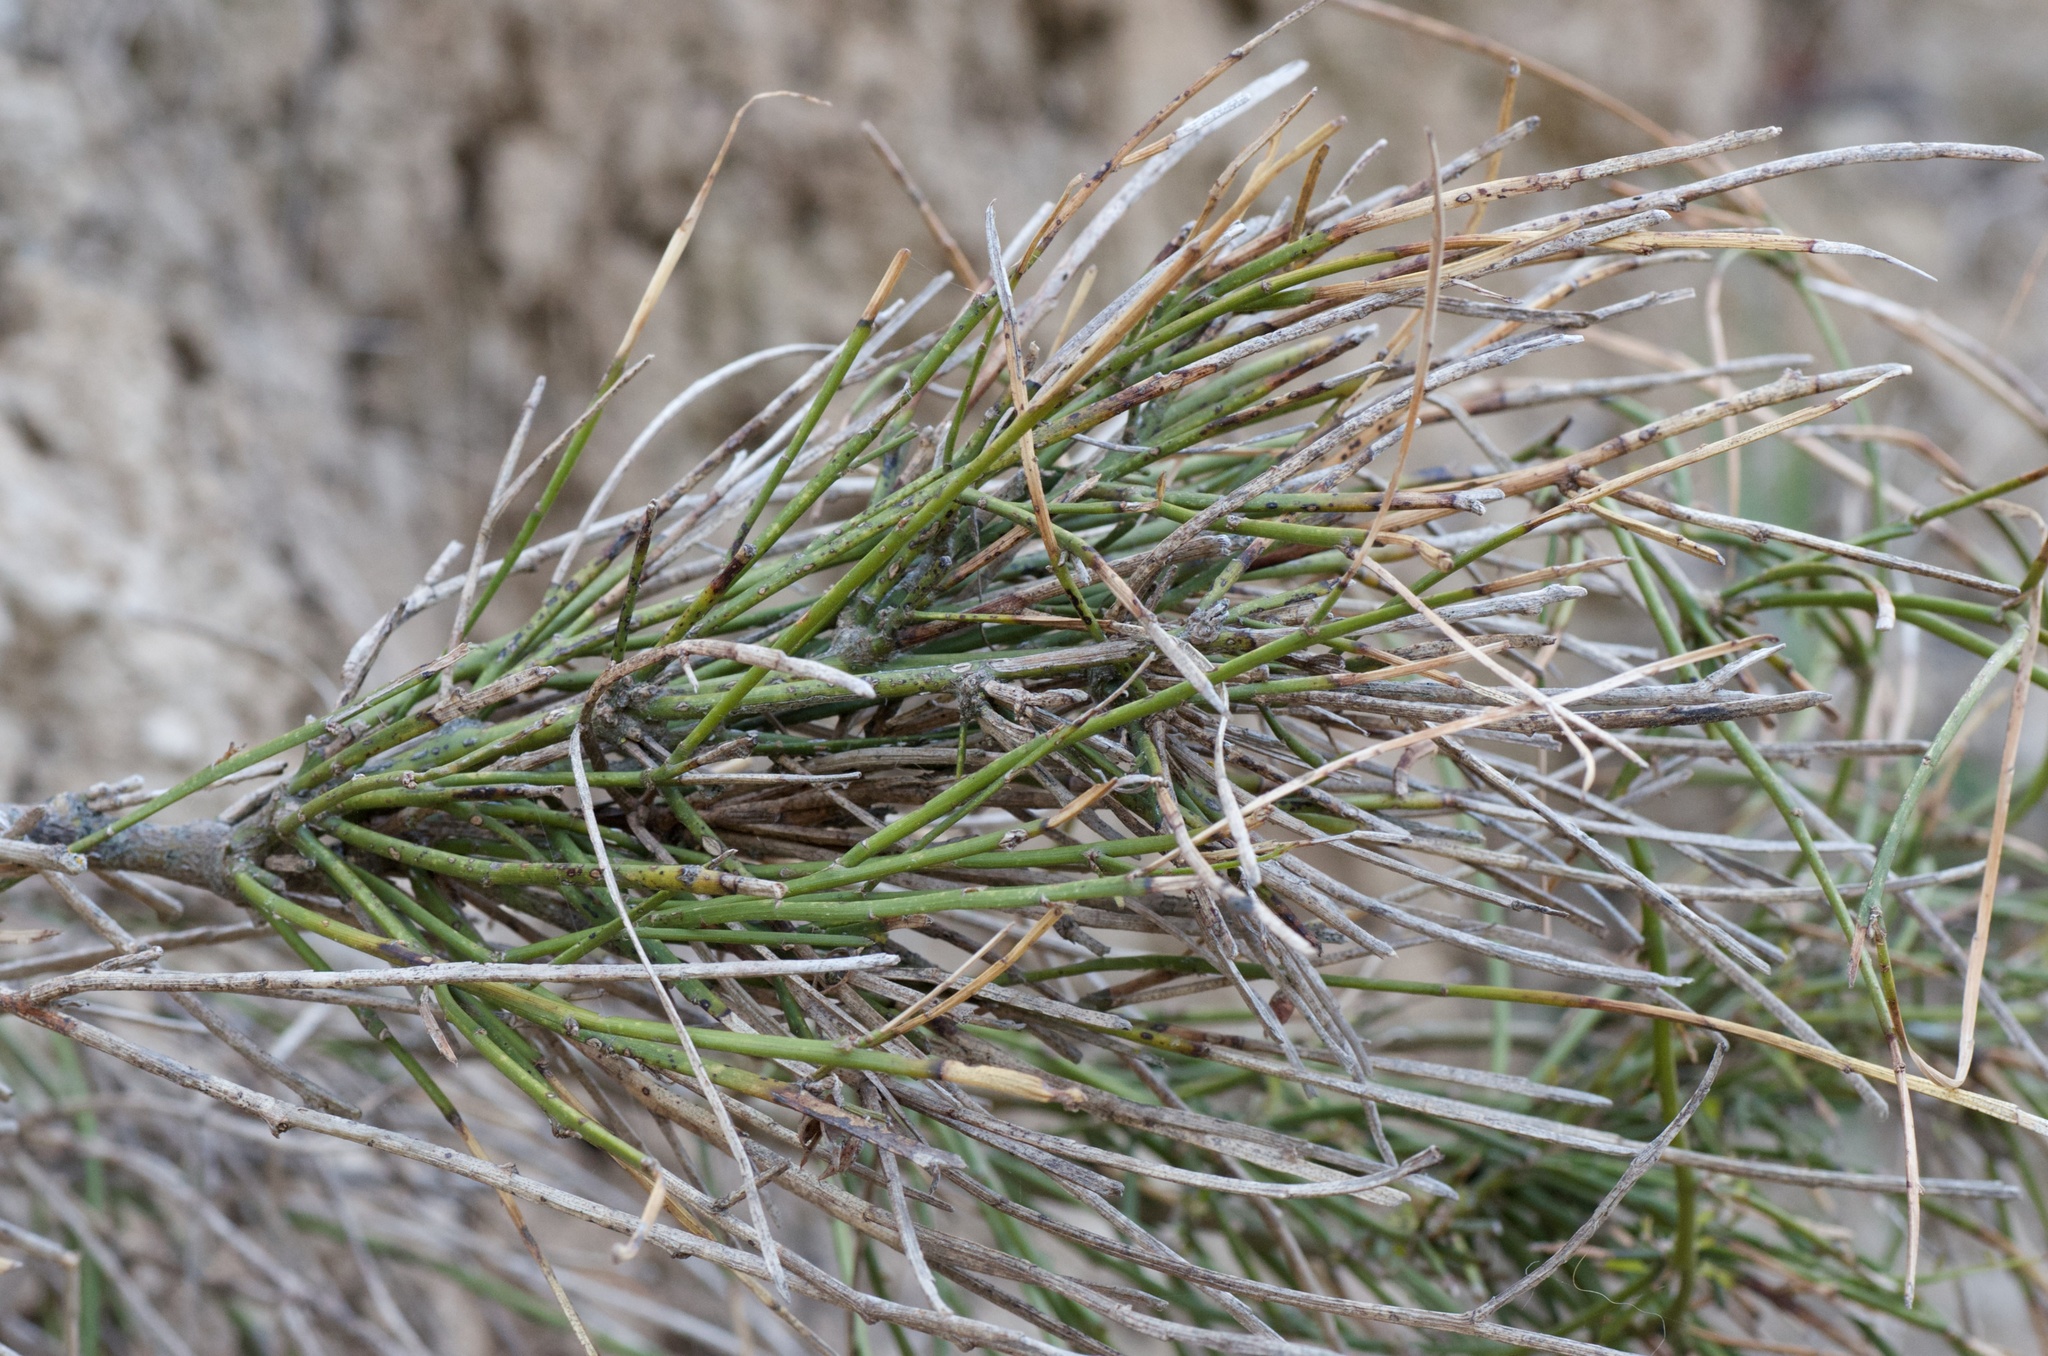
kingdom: Plantae
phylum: Tracheophyta
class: Magnoliopsida
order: Fabales
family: Fabaceae
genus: Carmichaelia
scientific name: Carmichaelia australis
